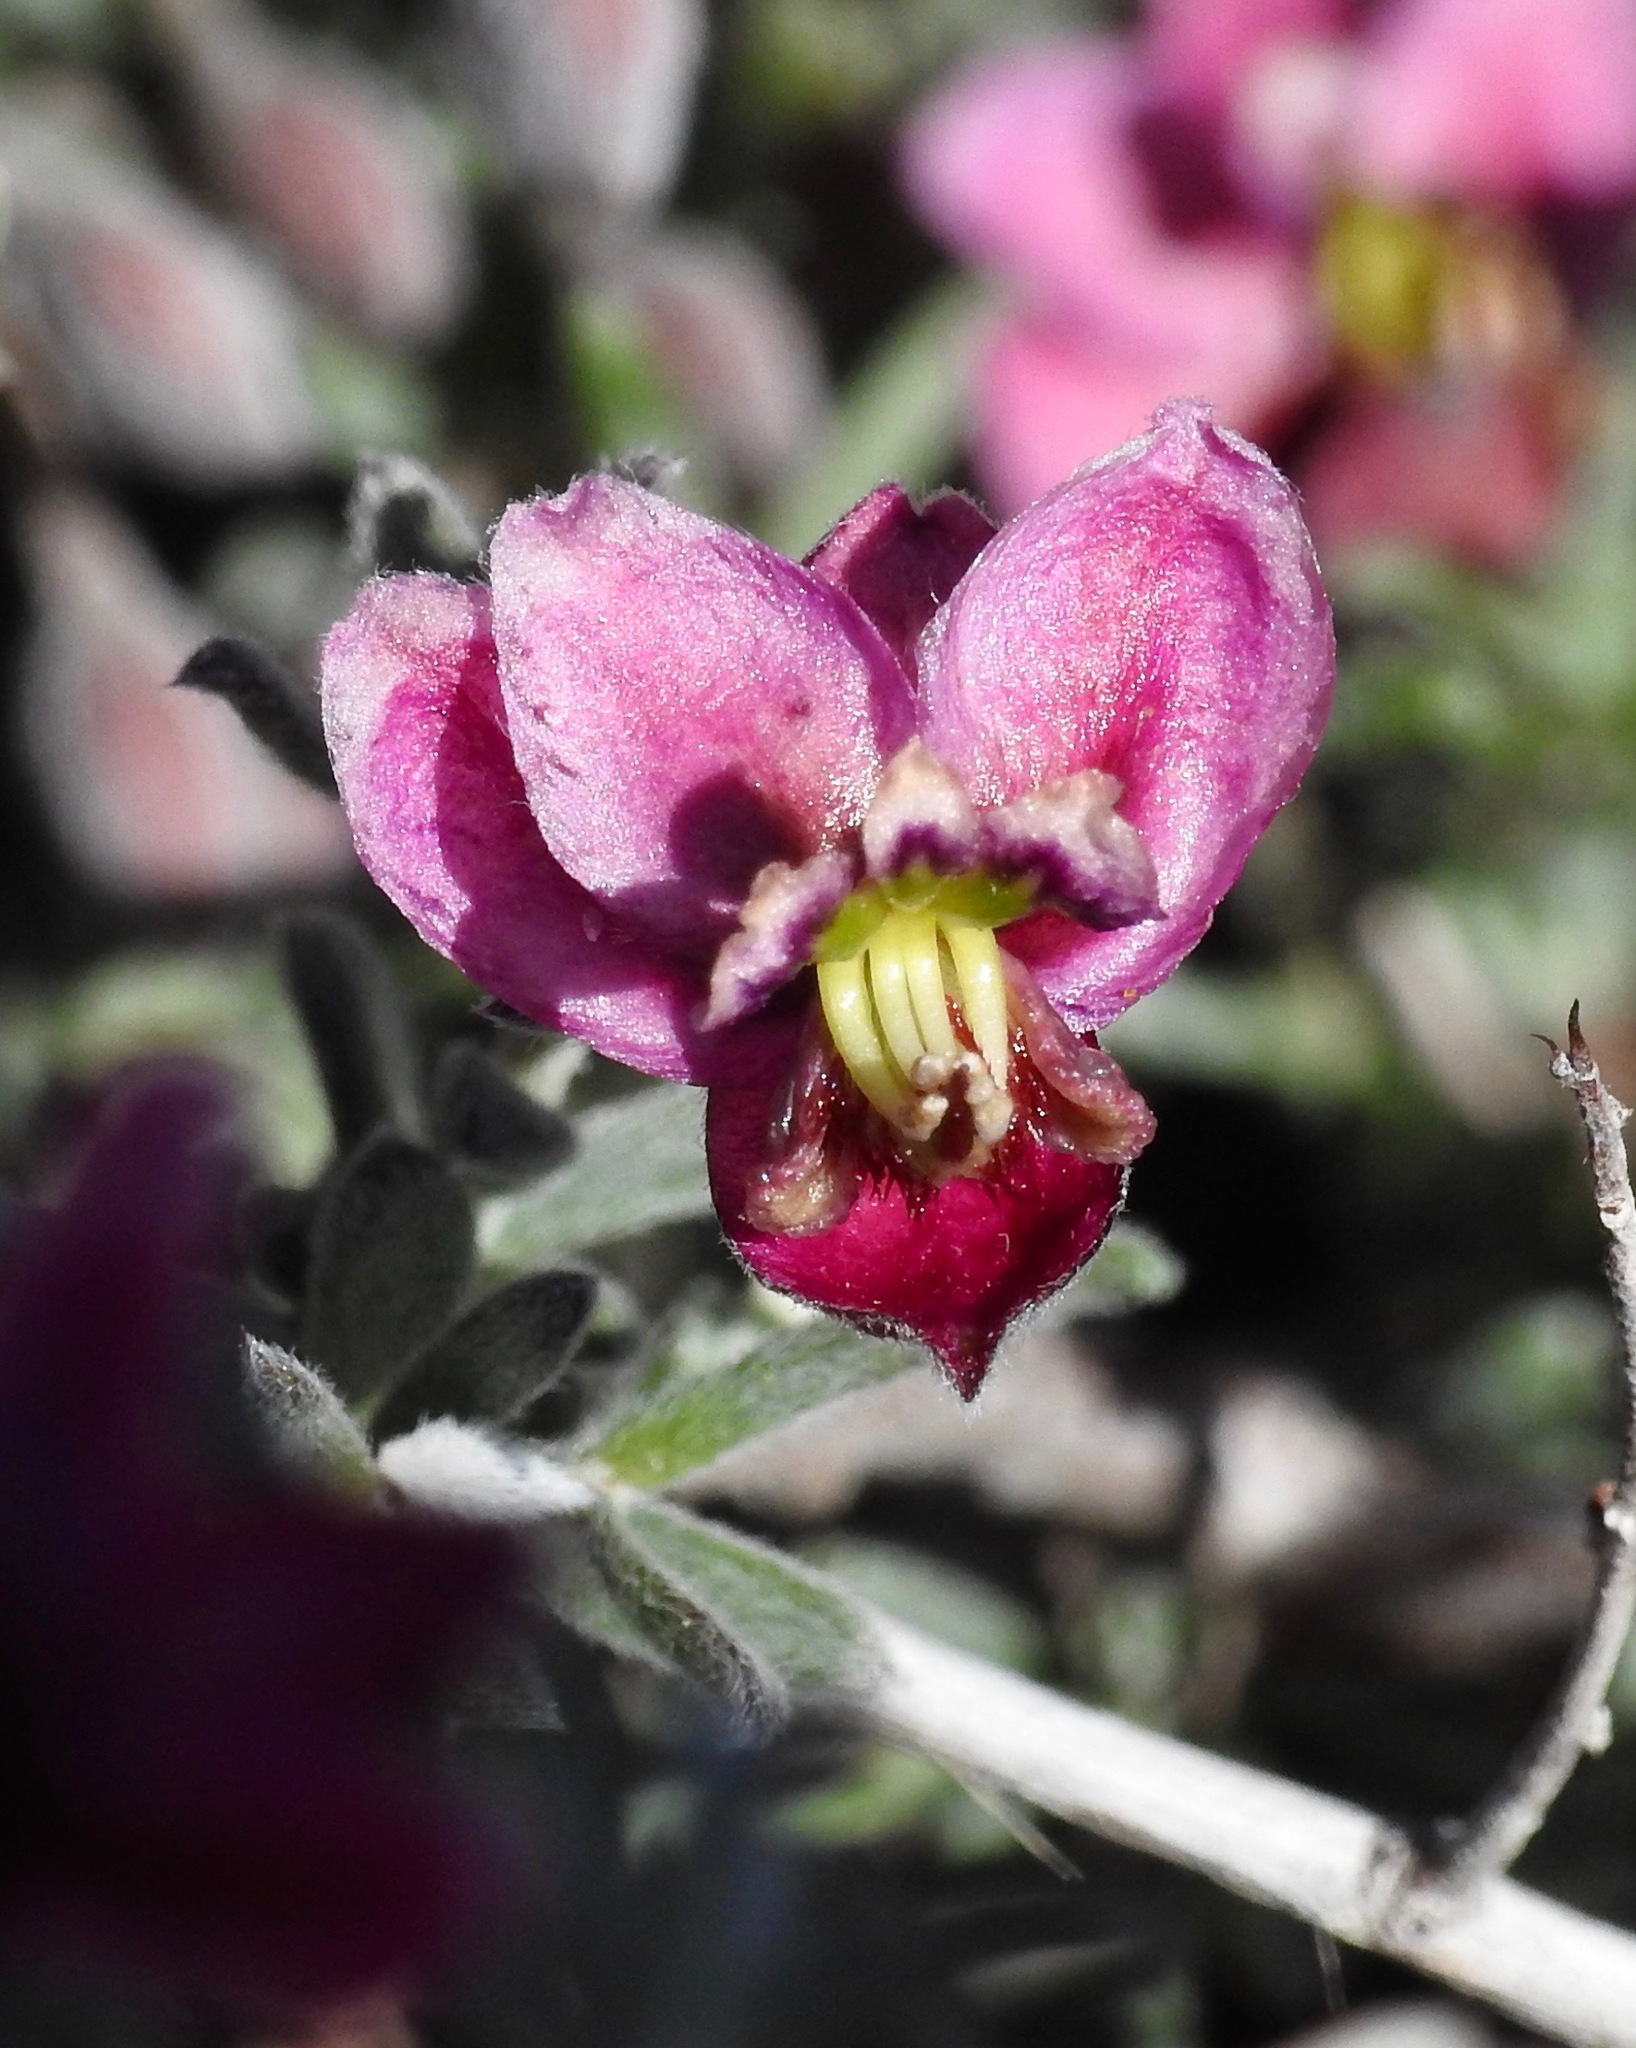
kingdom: Plantae
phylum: Tracheophyta
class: Magnoliopsida
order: Zygophyllales
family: Krameriaceae
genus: Krameria
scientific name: Krameria erecta
